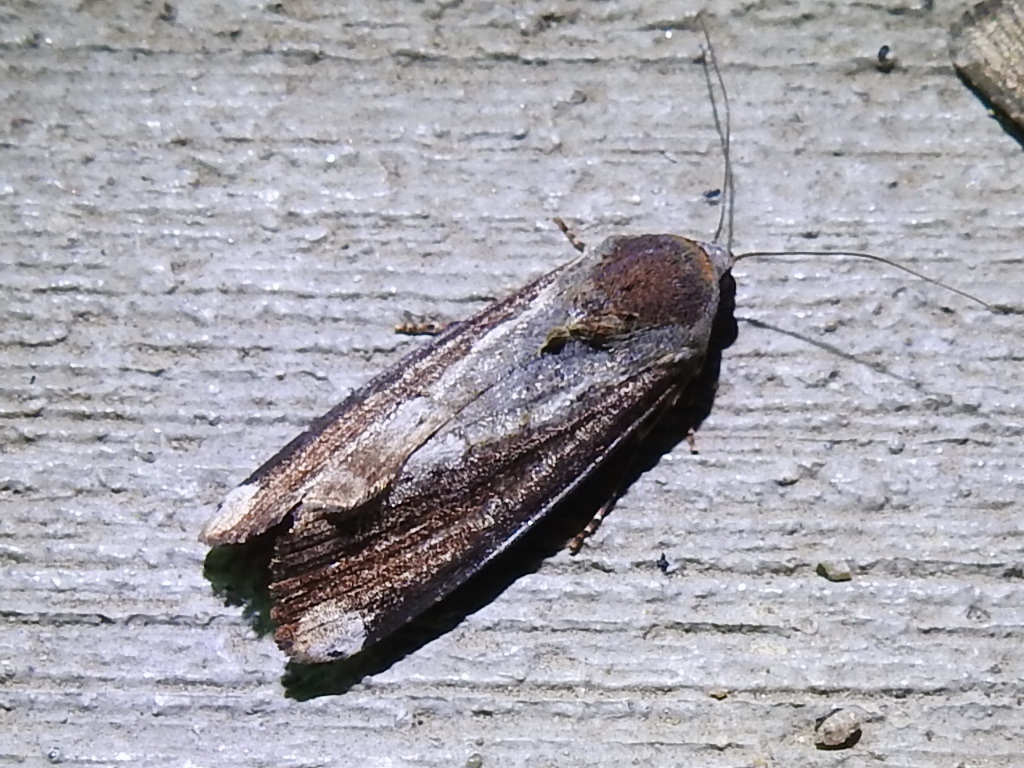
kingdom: Animalia
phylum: Arthropoda
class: Insecta
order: Lepidoptera
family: Noctuidae
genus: Magusa
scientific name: Magusa divaricata
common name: Orb narrow-winged moth
